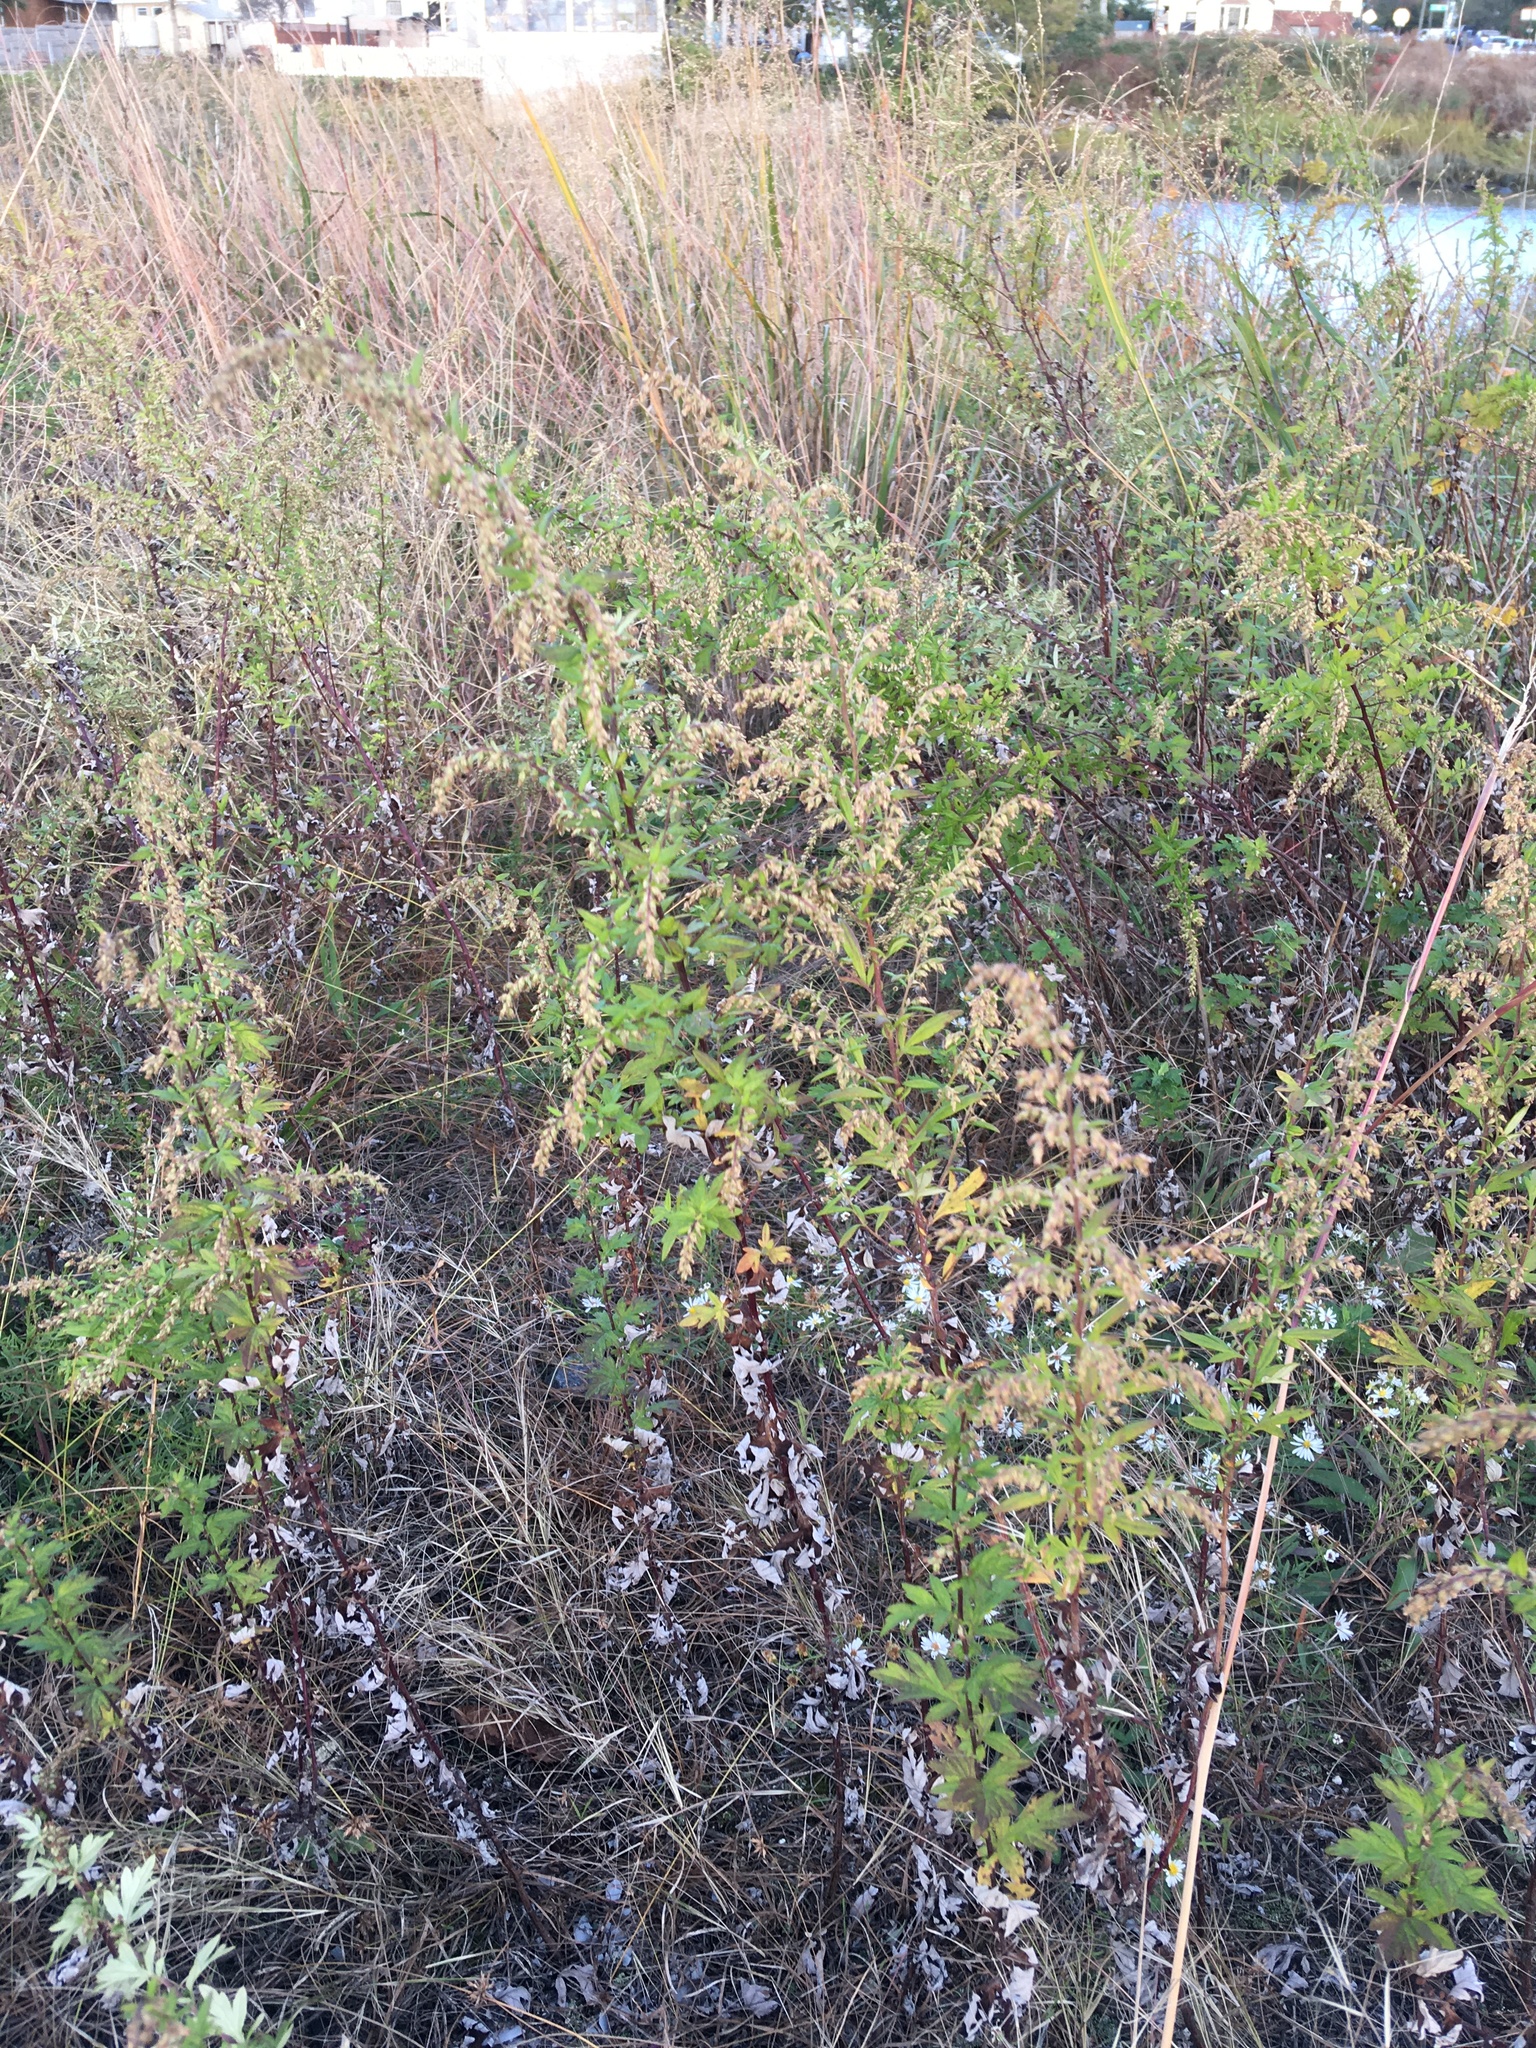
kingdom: Plantae
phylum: Tracheophyta
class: Magnoliopsida
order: Asterales
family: Asteraceae
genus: Artemisia
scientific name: Artemisia vulgaris
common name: Mugwort
